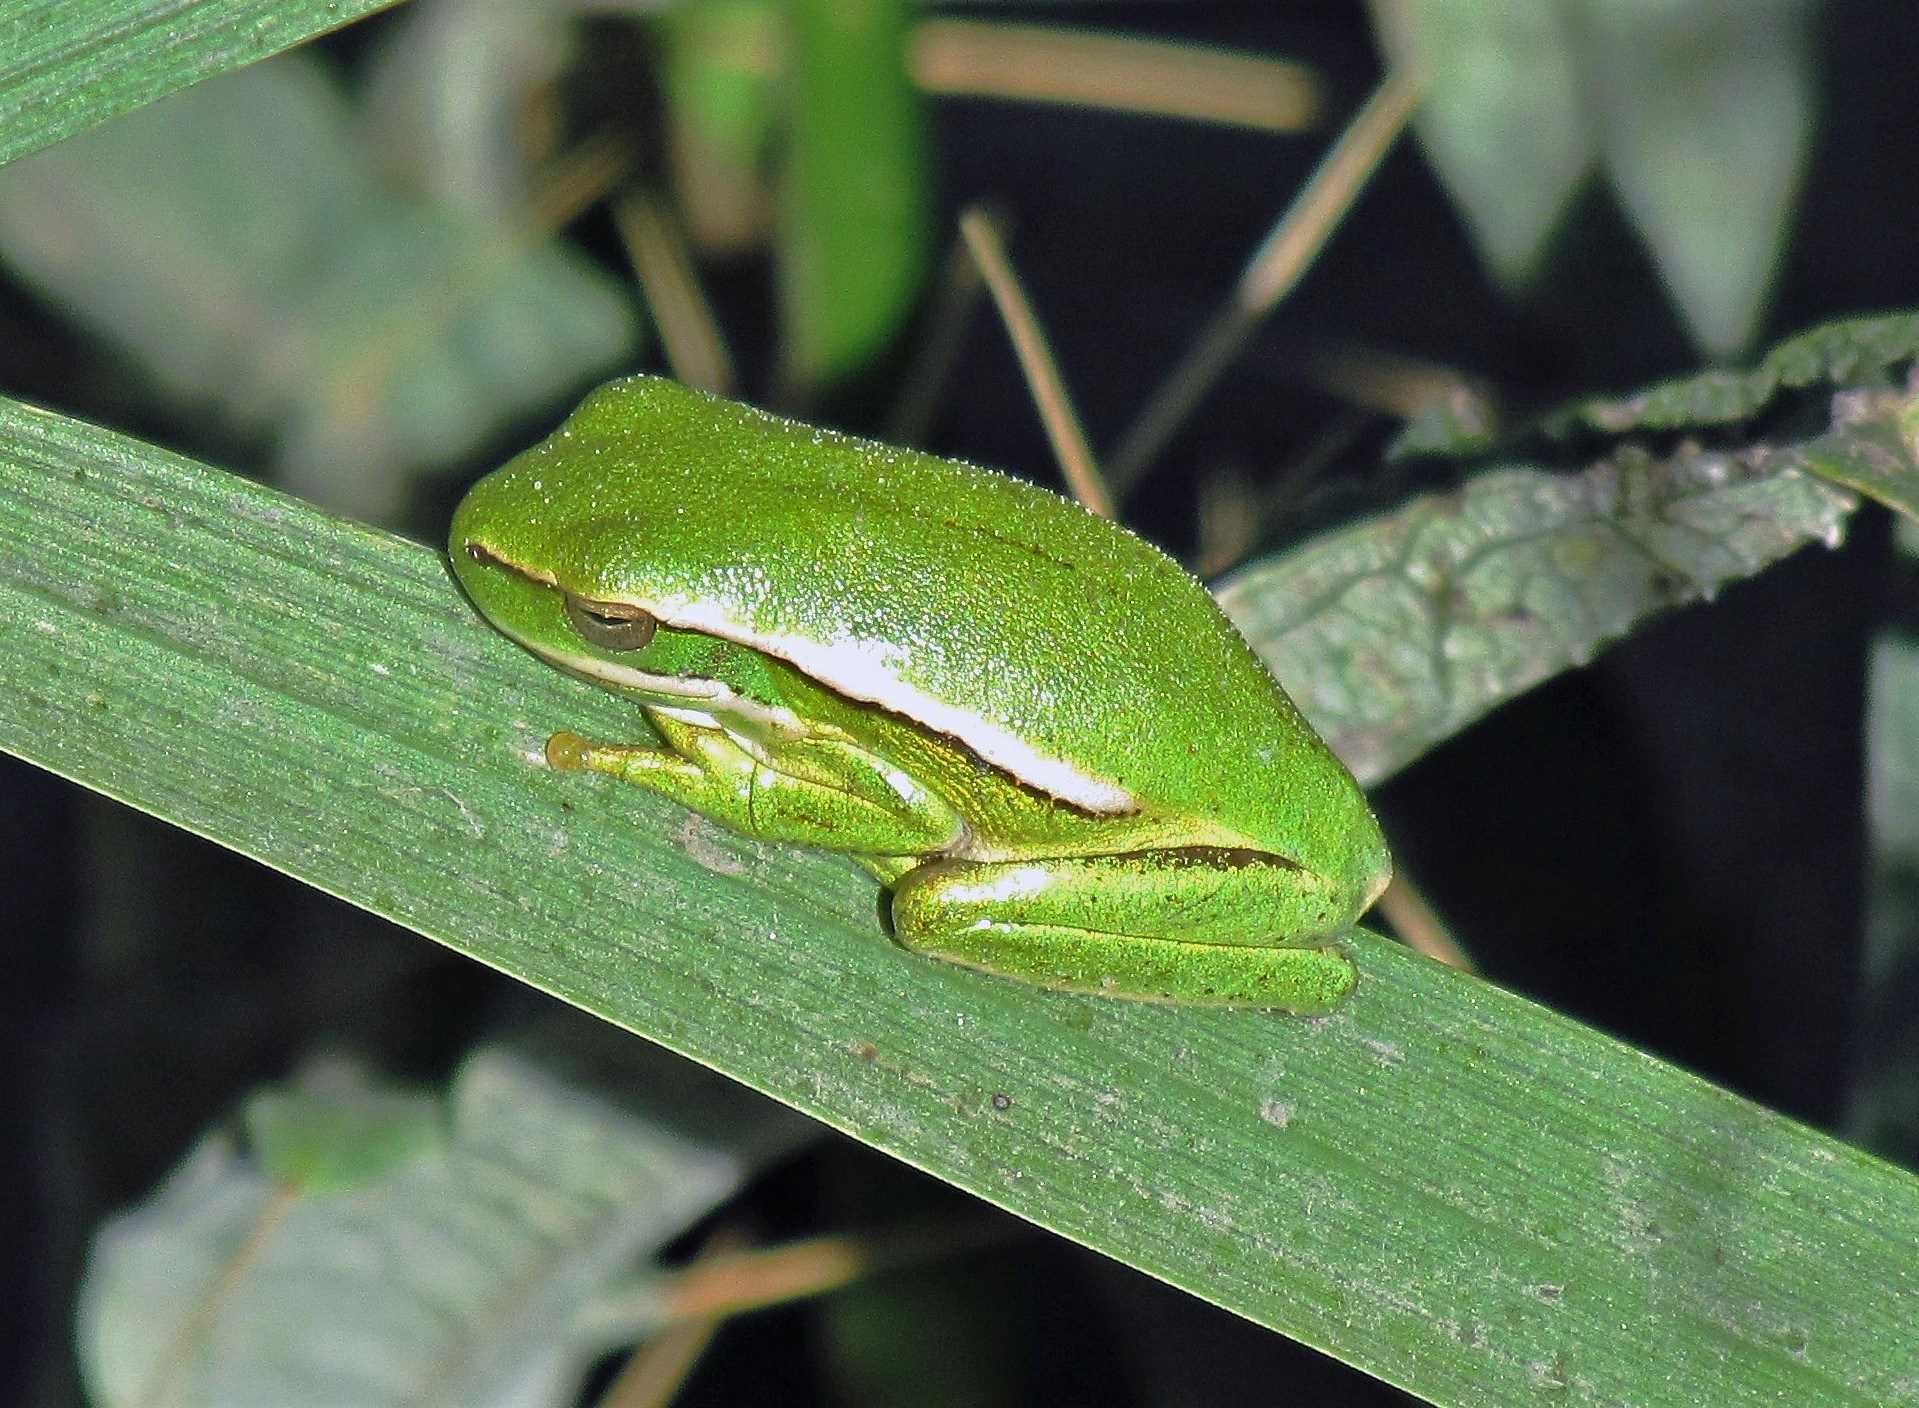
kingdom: Animalia
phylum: Chordata
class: Amphibia
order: Anura
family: Hylidae
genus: Boana
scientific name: Boana pulchella
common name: Montevideo treefrog
